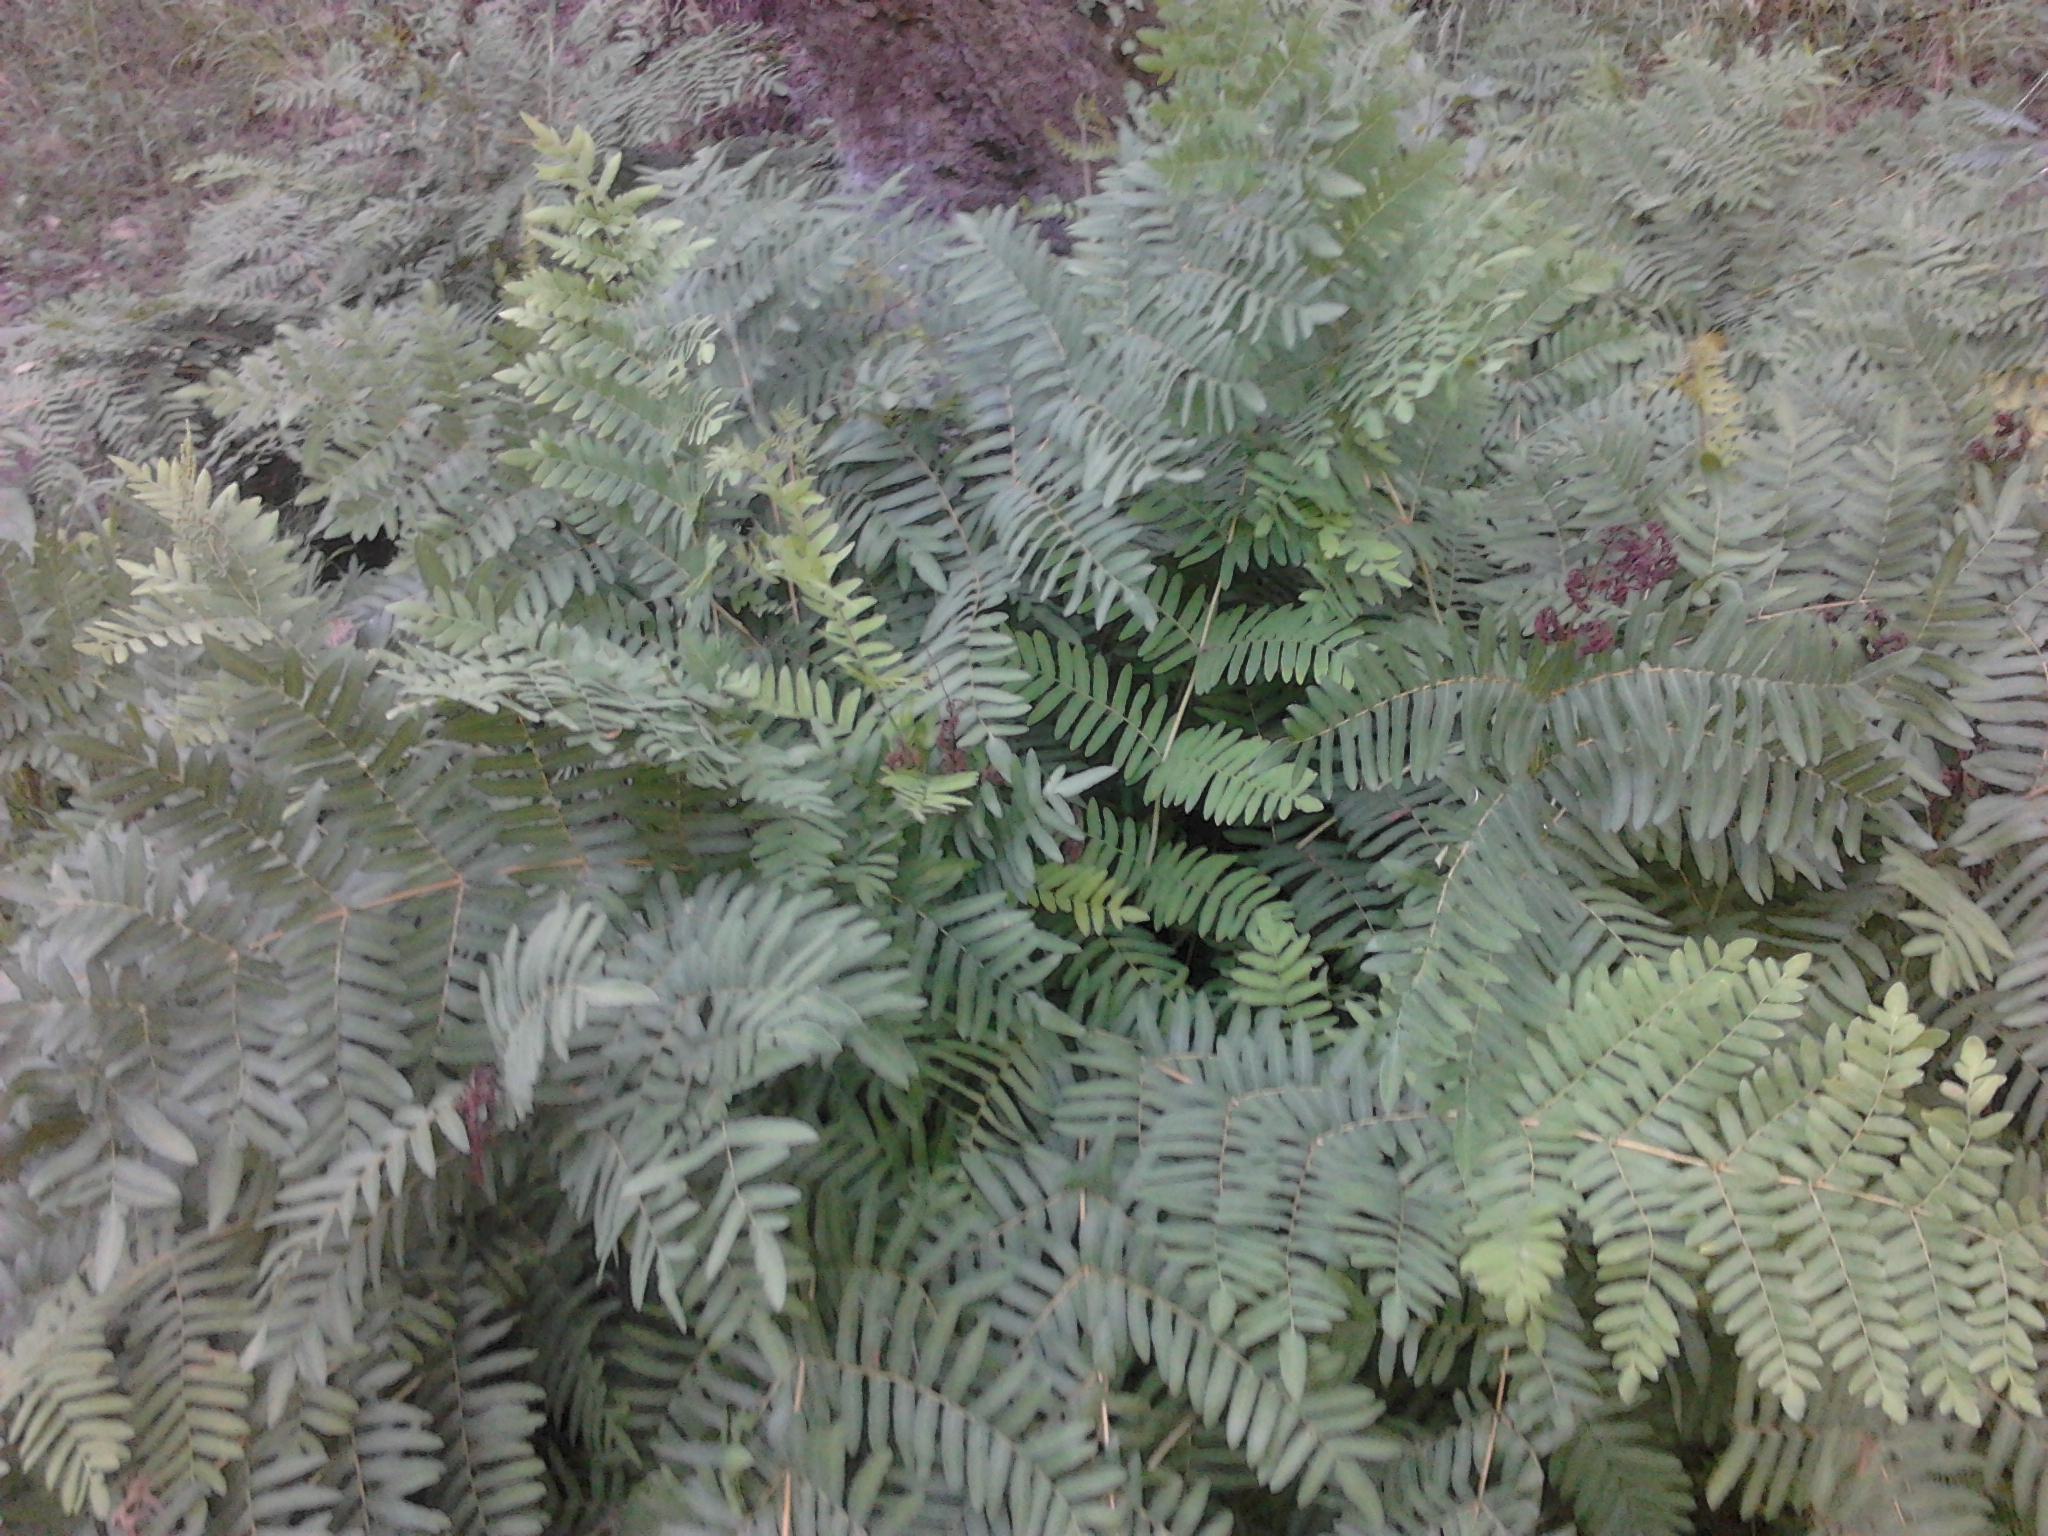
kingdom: Plantae
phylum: Tracheophyta
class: Polypodiopsida
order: Osmundales
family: Osmundaceae
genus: Osmunda
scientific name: Osmunda regalis
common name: Royal fern
